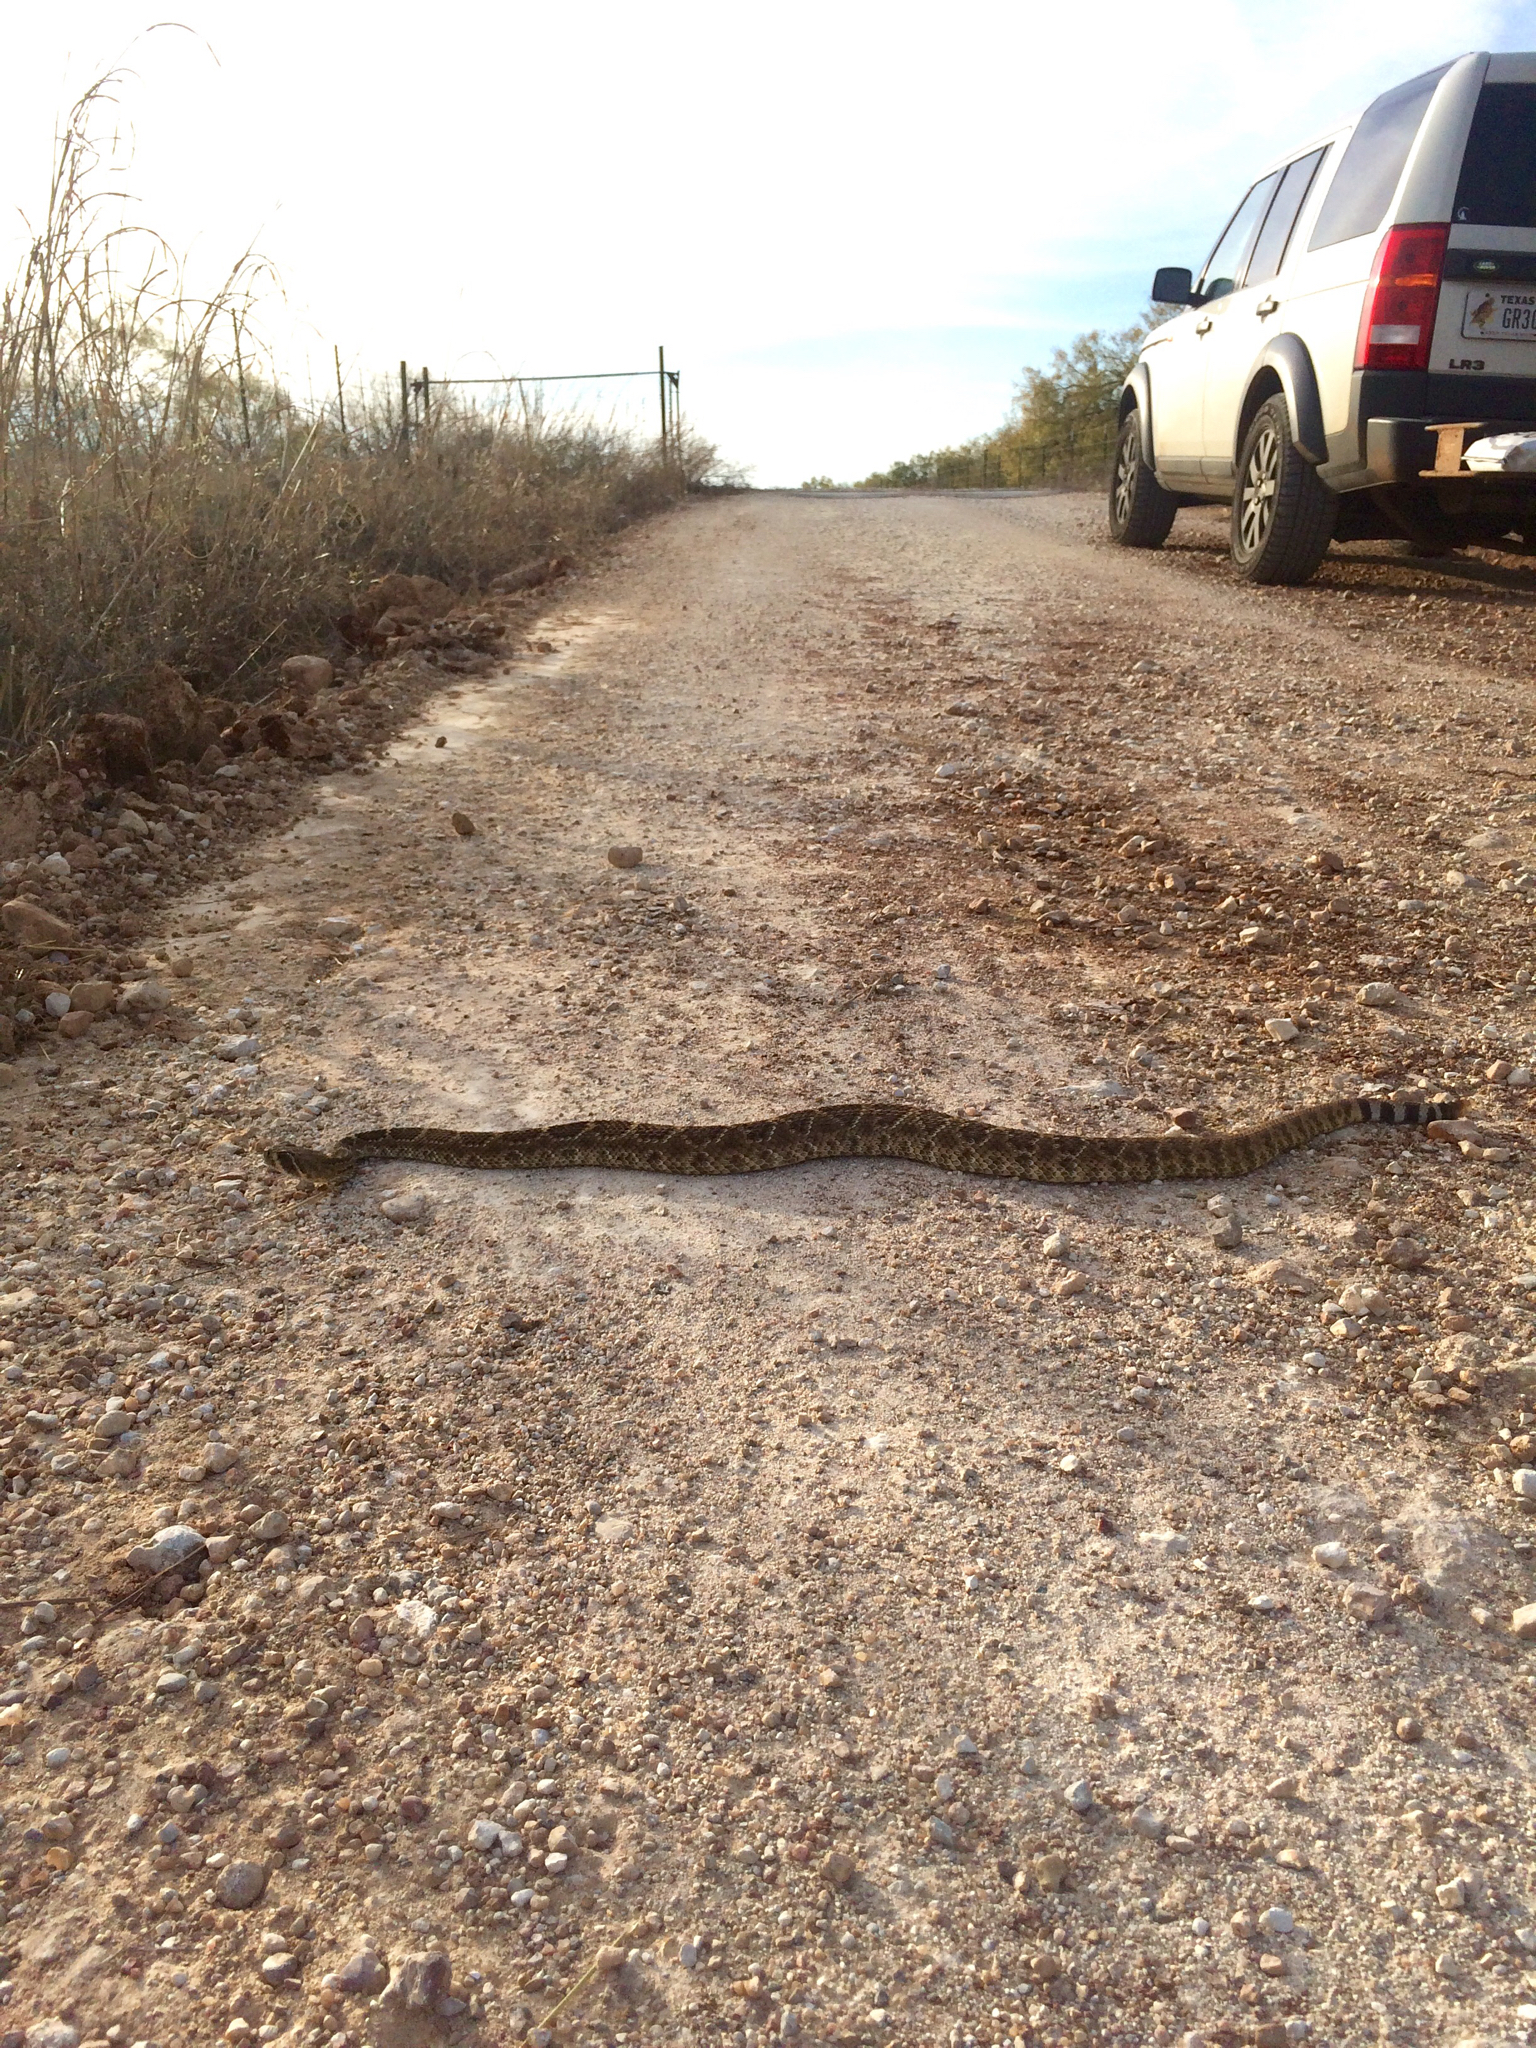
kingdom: Animalia
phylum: Chordata
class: Squamata
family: Viperidae
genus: Crotalus
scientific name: Crotalus atrox
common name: Western diamond-backed rattlesnake
